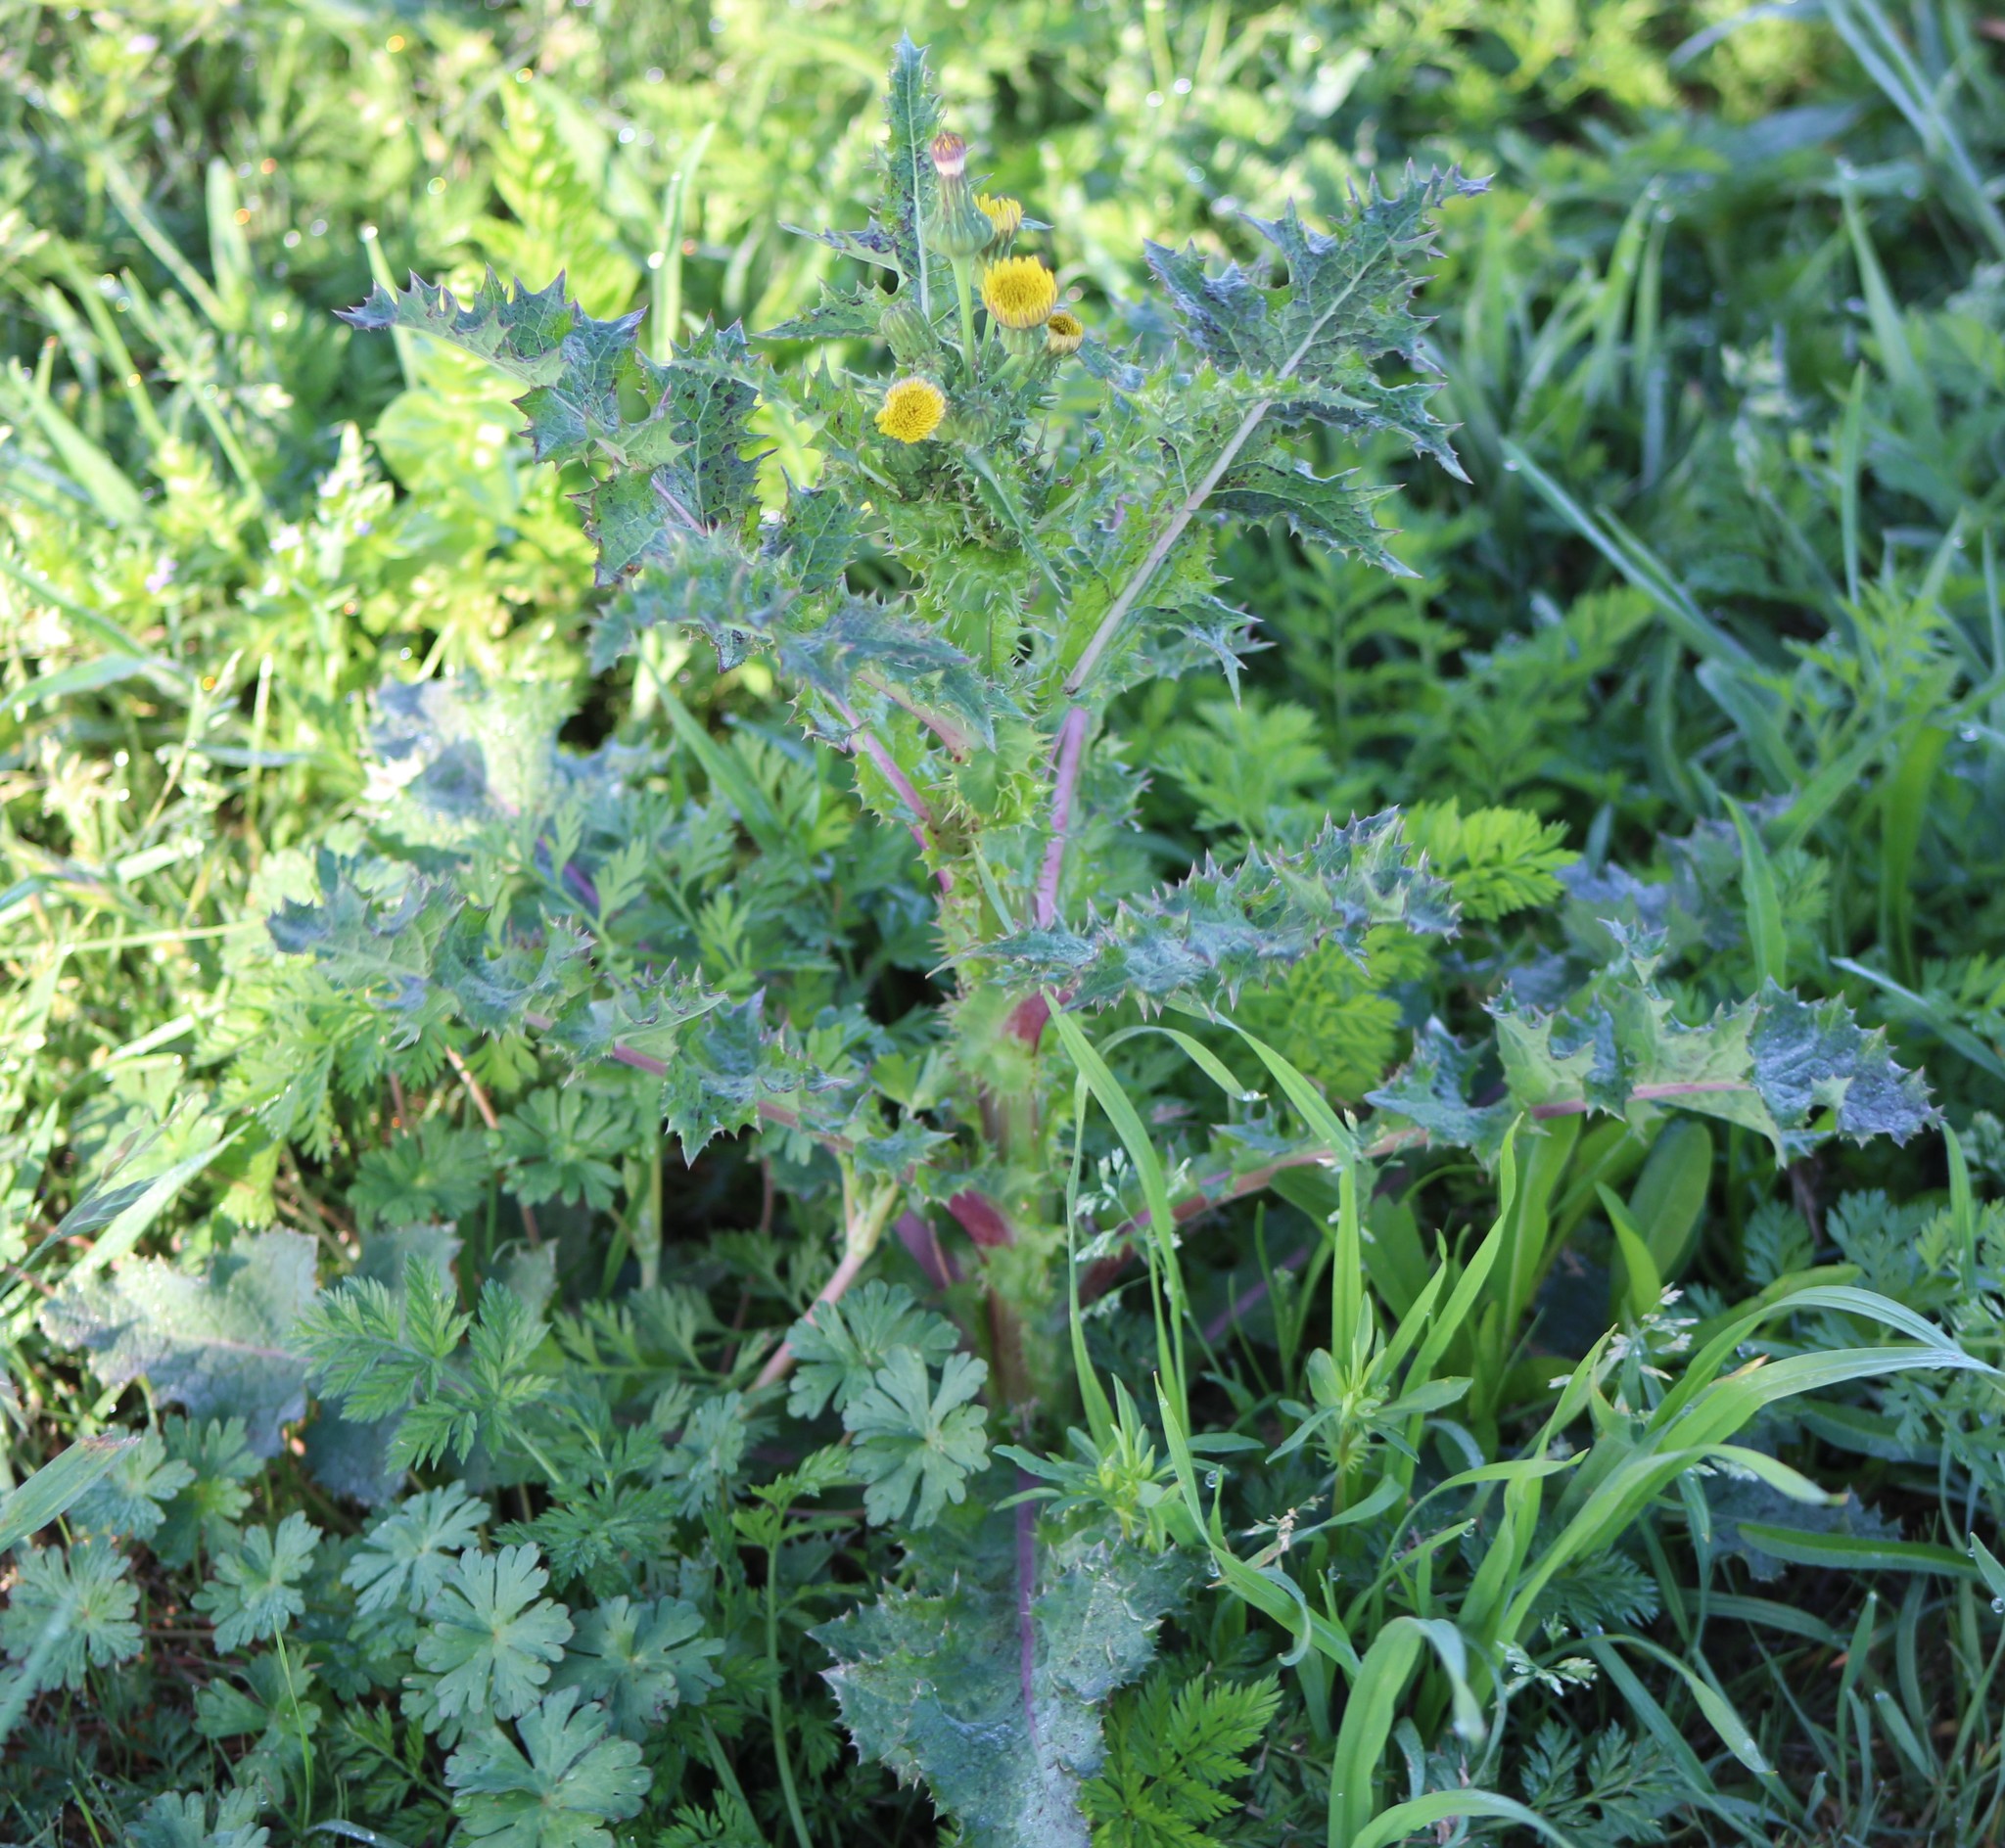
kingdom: Plantae
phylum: Tracheophyta
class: Magnoliopsida
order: Asterales
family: Asteraceae
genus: Sonchus
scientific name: Sonchus asper
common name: Prickly sow-thistle
